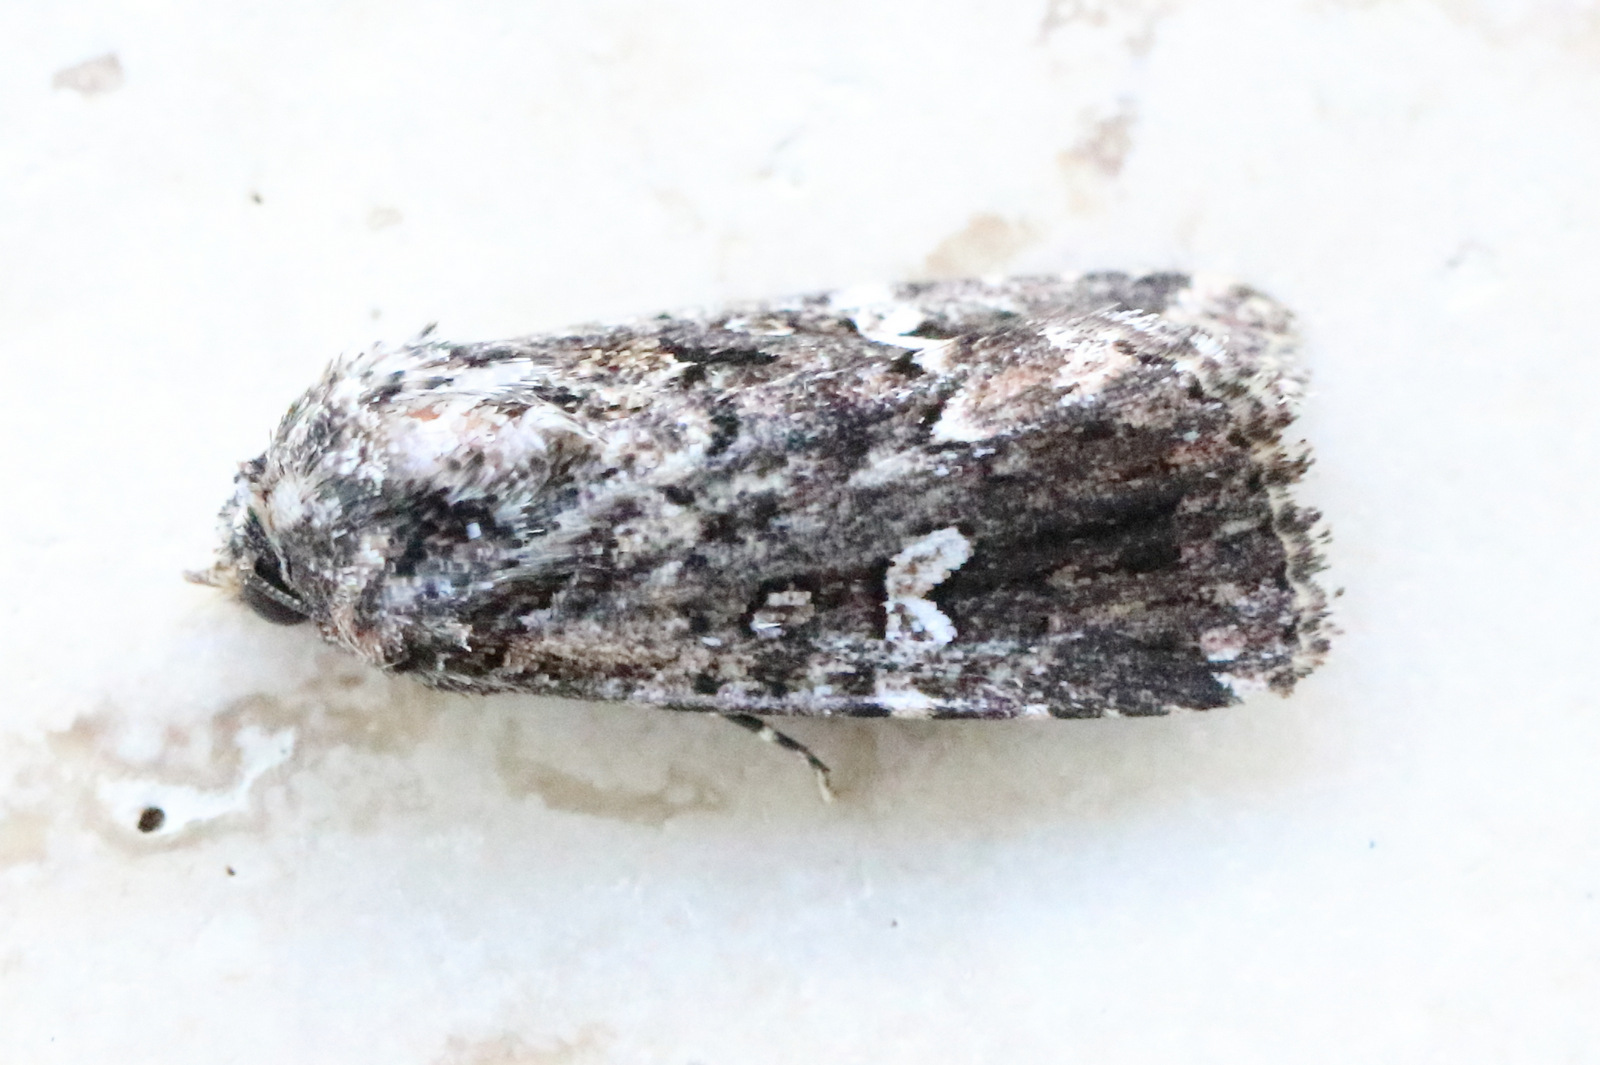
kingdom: Animalia
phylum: Arthropoda
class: Insecta
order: Lepidoptera
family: Noctuidae
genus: Ectopatria
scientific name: Ectopatria horologa
